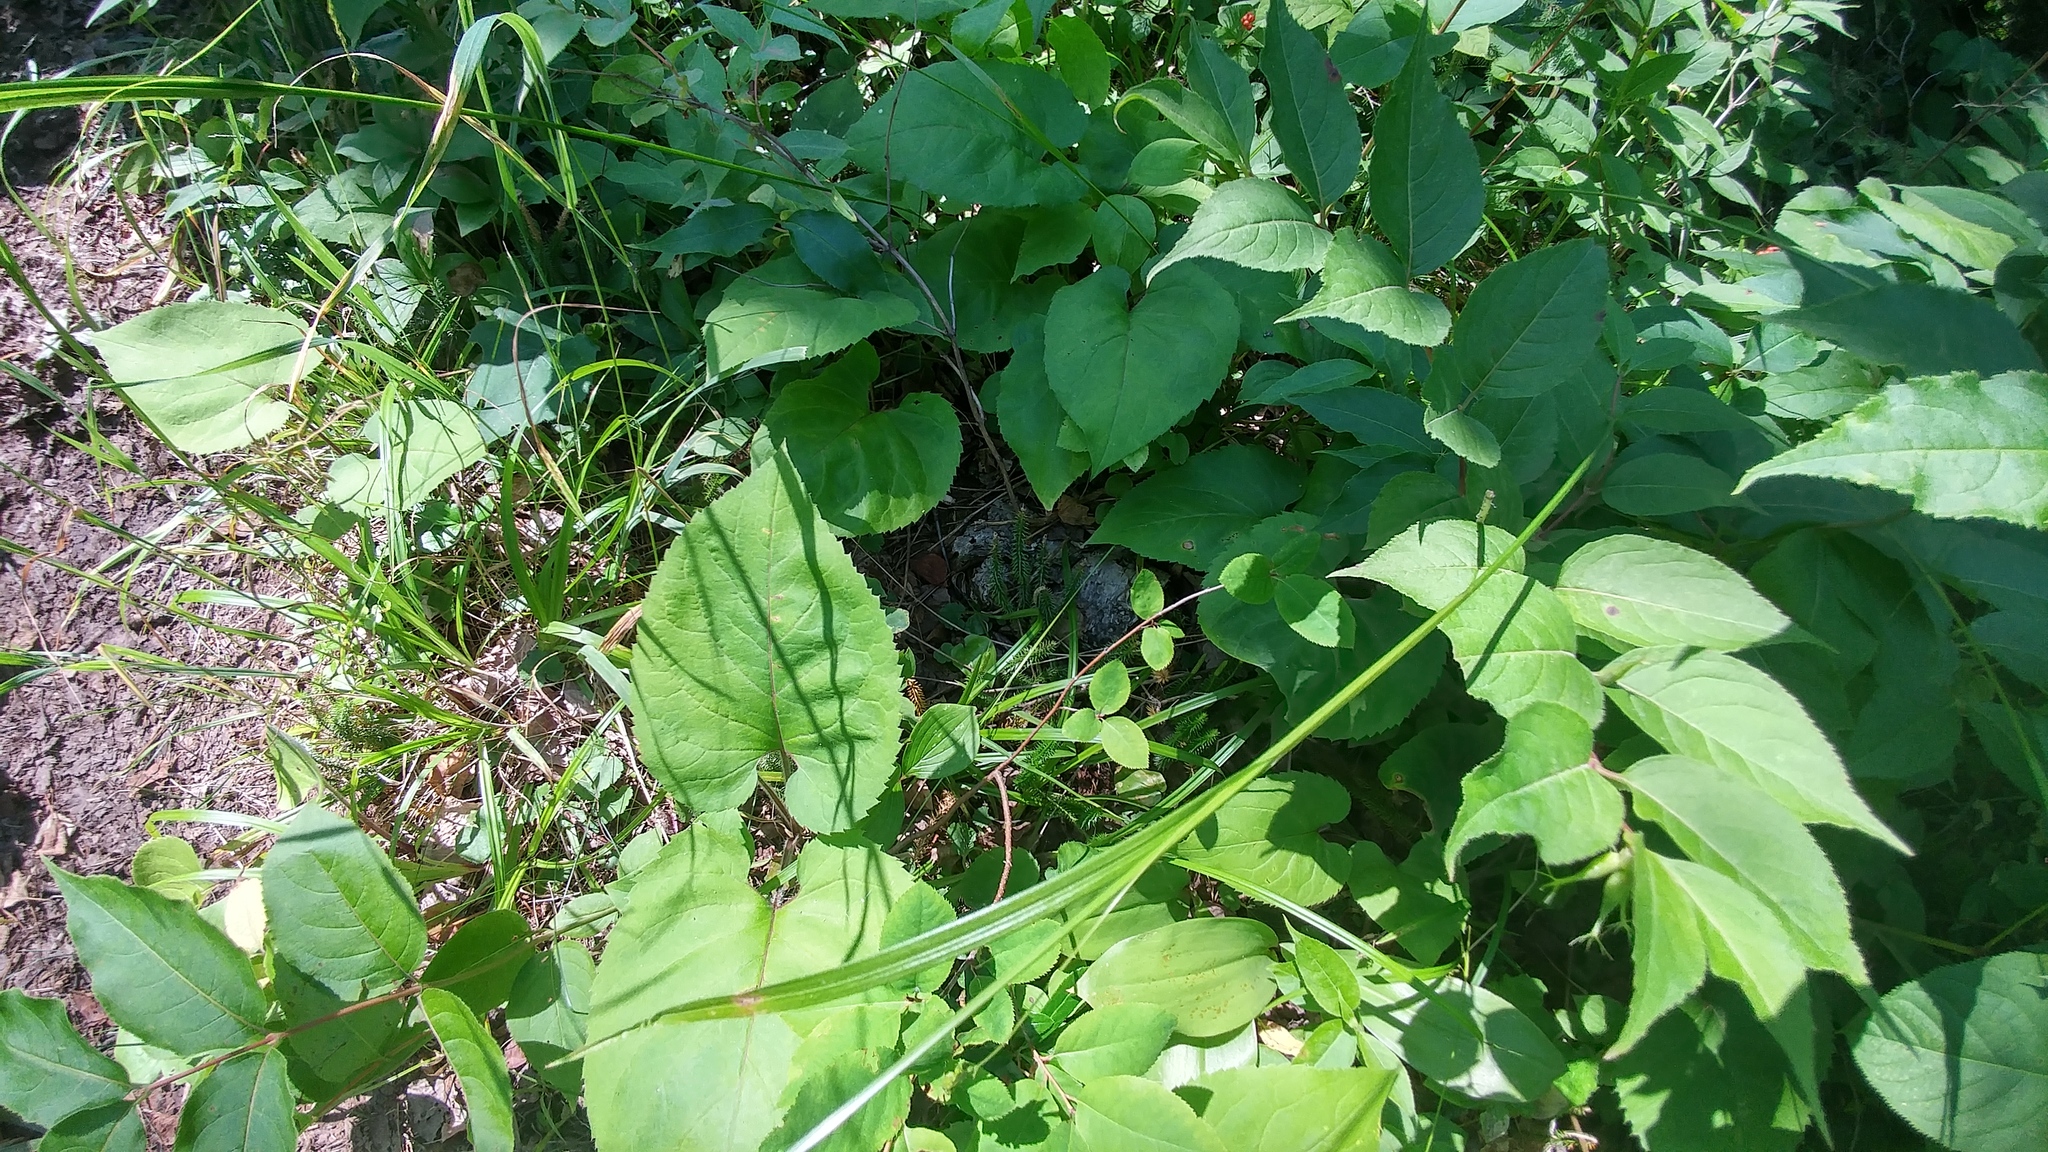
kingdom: Plantae
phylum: Tracheophyta
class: Lycopodiopsida
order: Lycopodiales
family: Lycopodiaceae
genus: Spinulum
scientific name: Spinulum annotinum
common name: Interrupted club-moss
